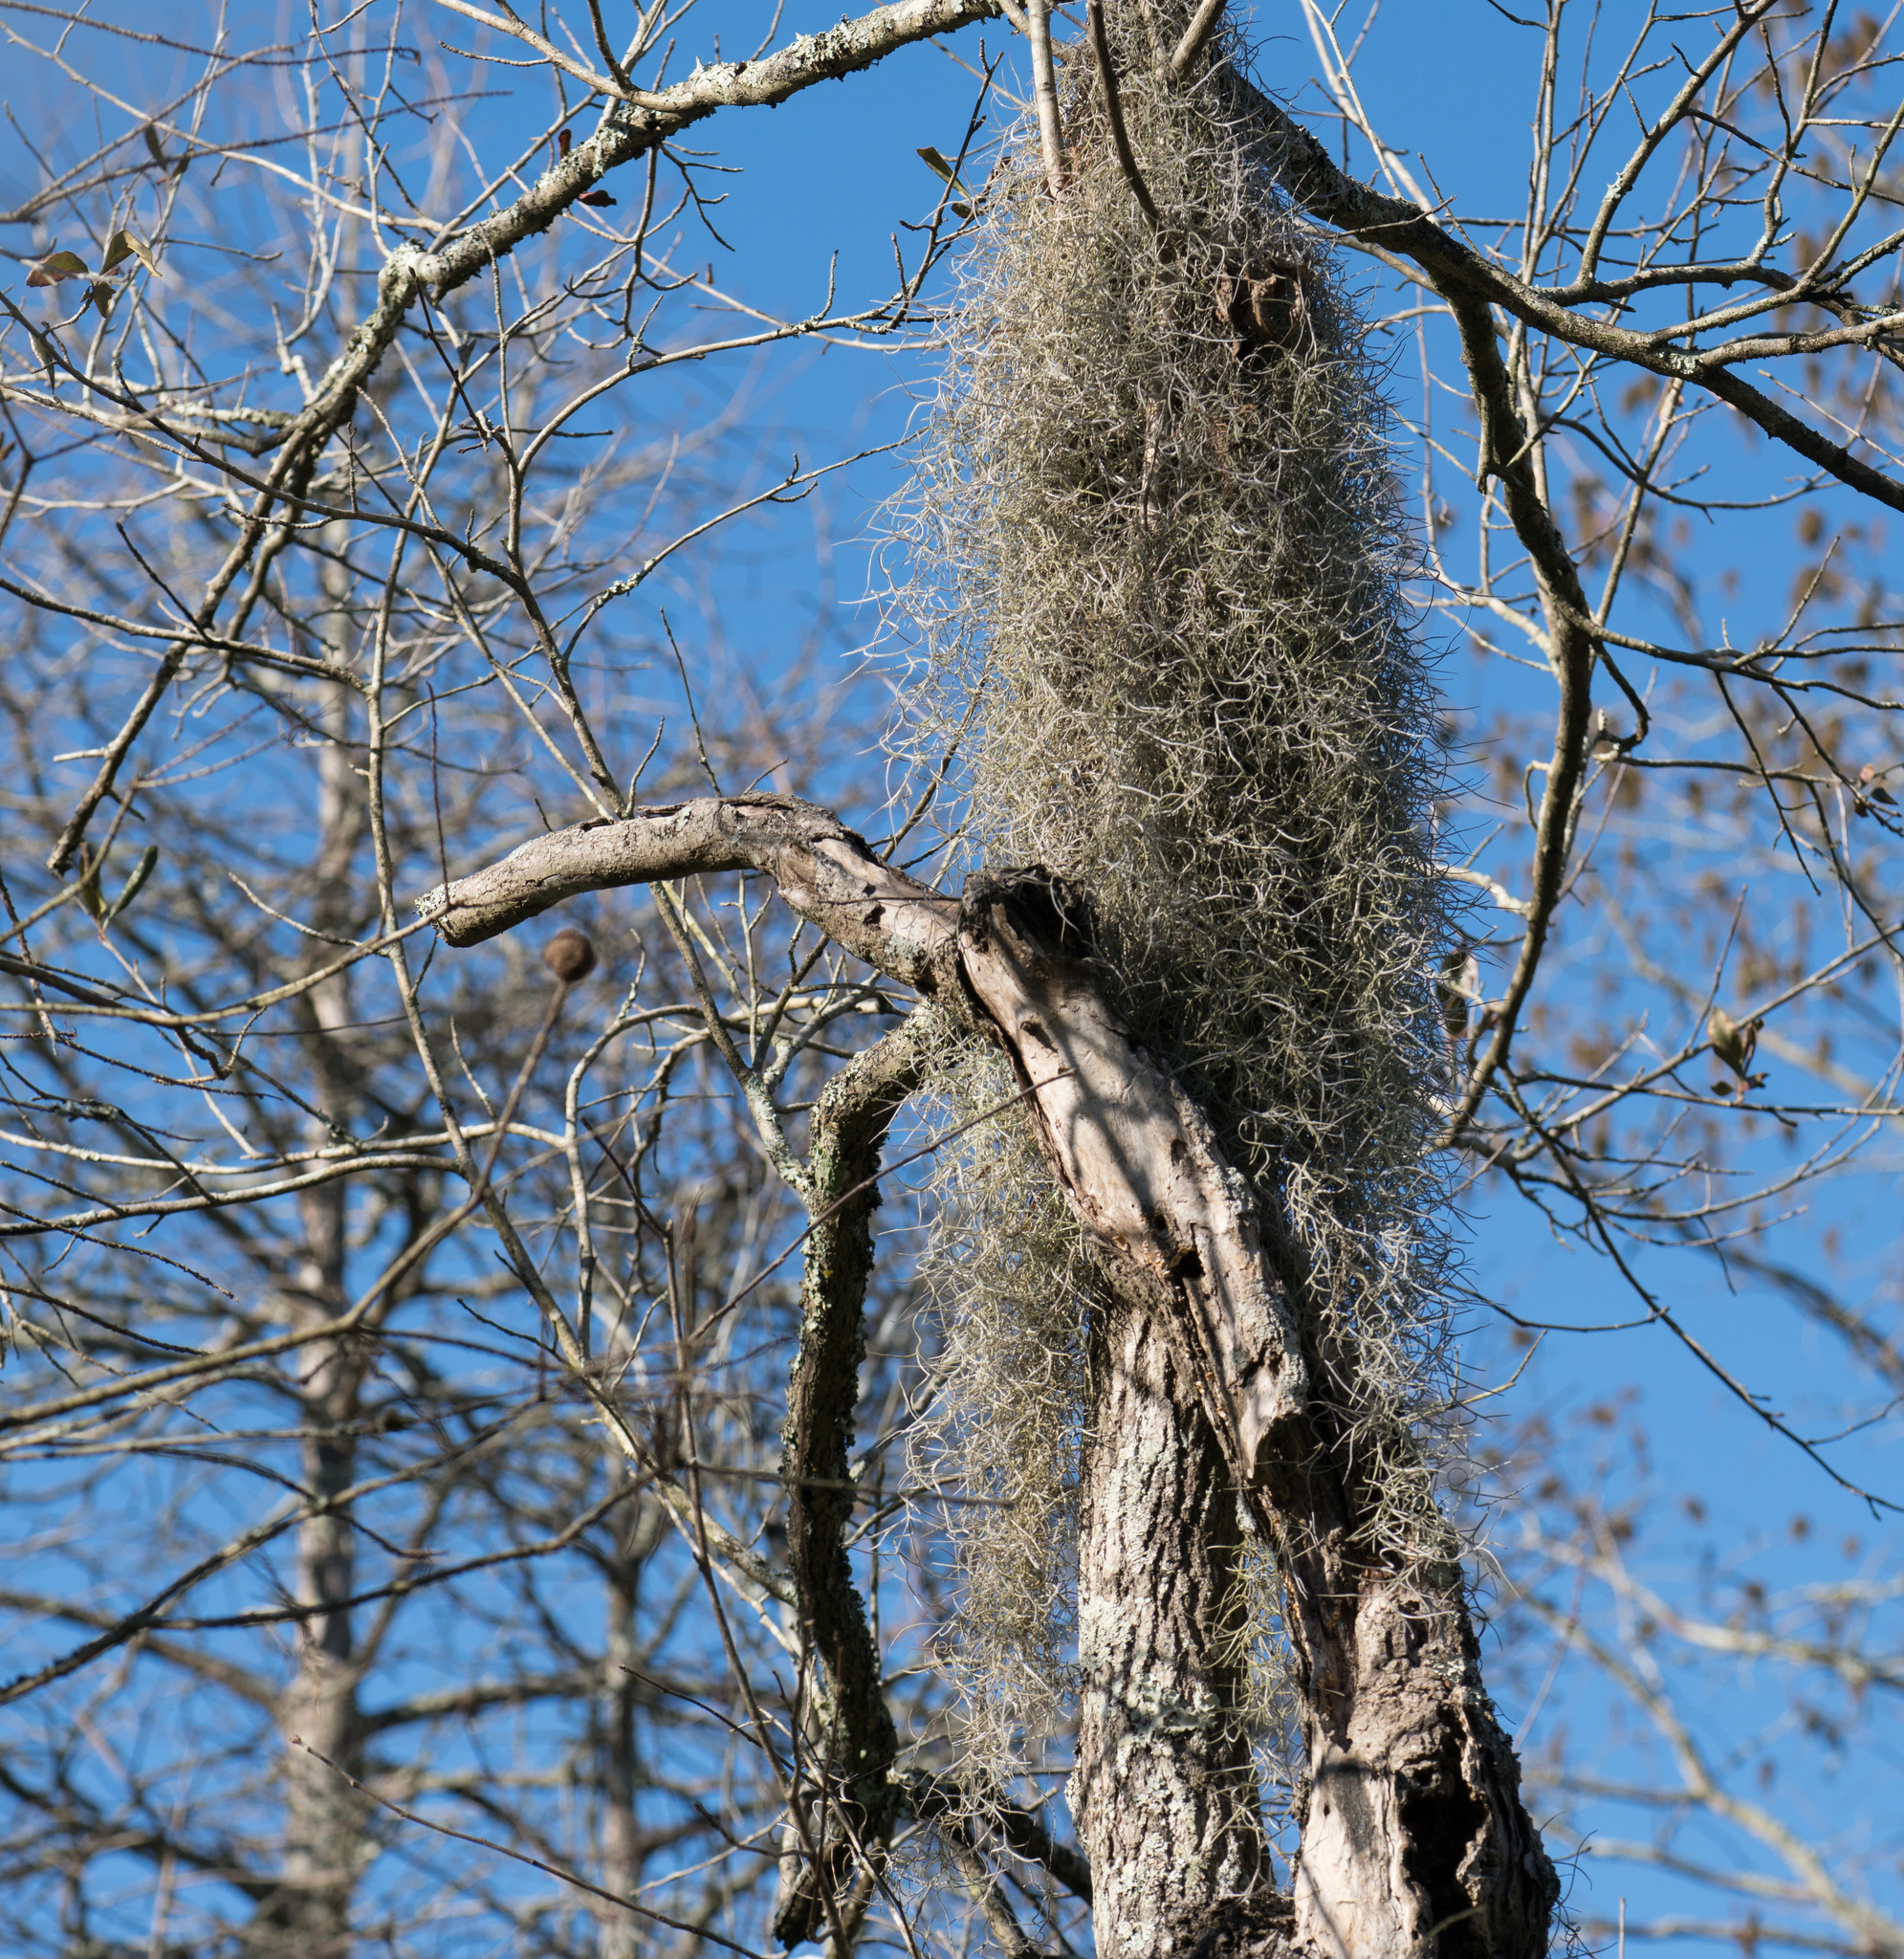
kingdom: Plantae
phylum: Tracheophyta
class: Liliopsida
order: Poales
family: Bromeliaceae
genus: Tillandsia
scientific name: Tillandsia usneoides
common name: Spanish moss
